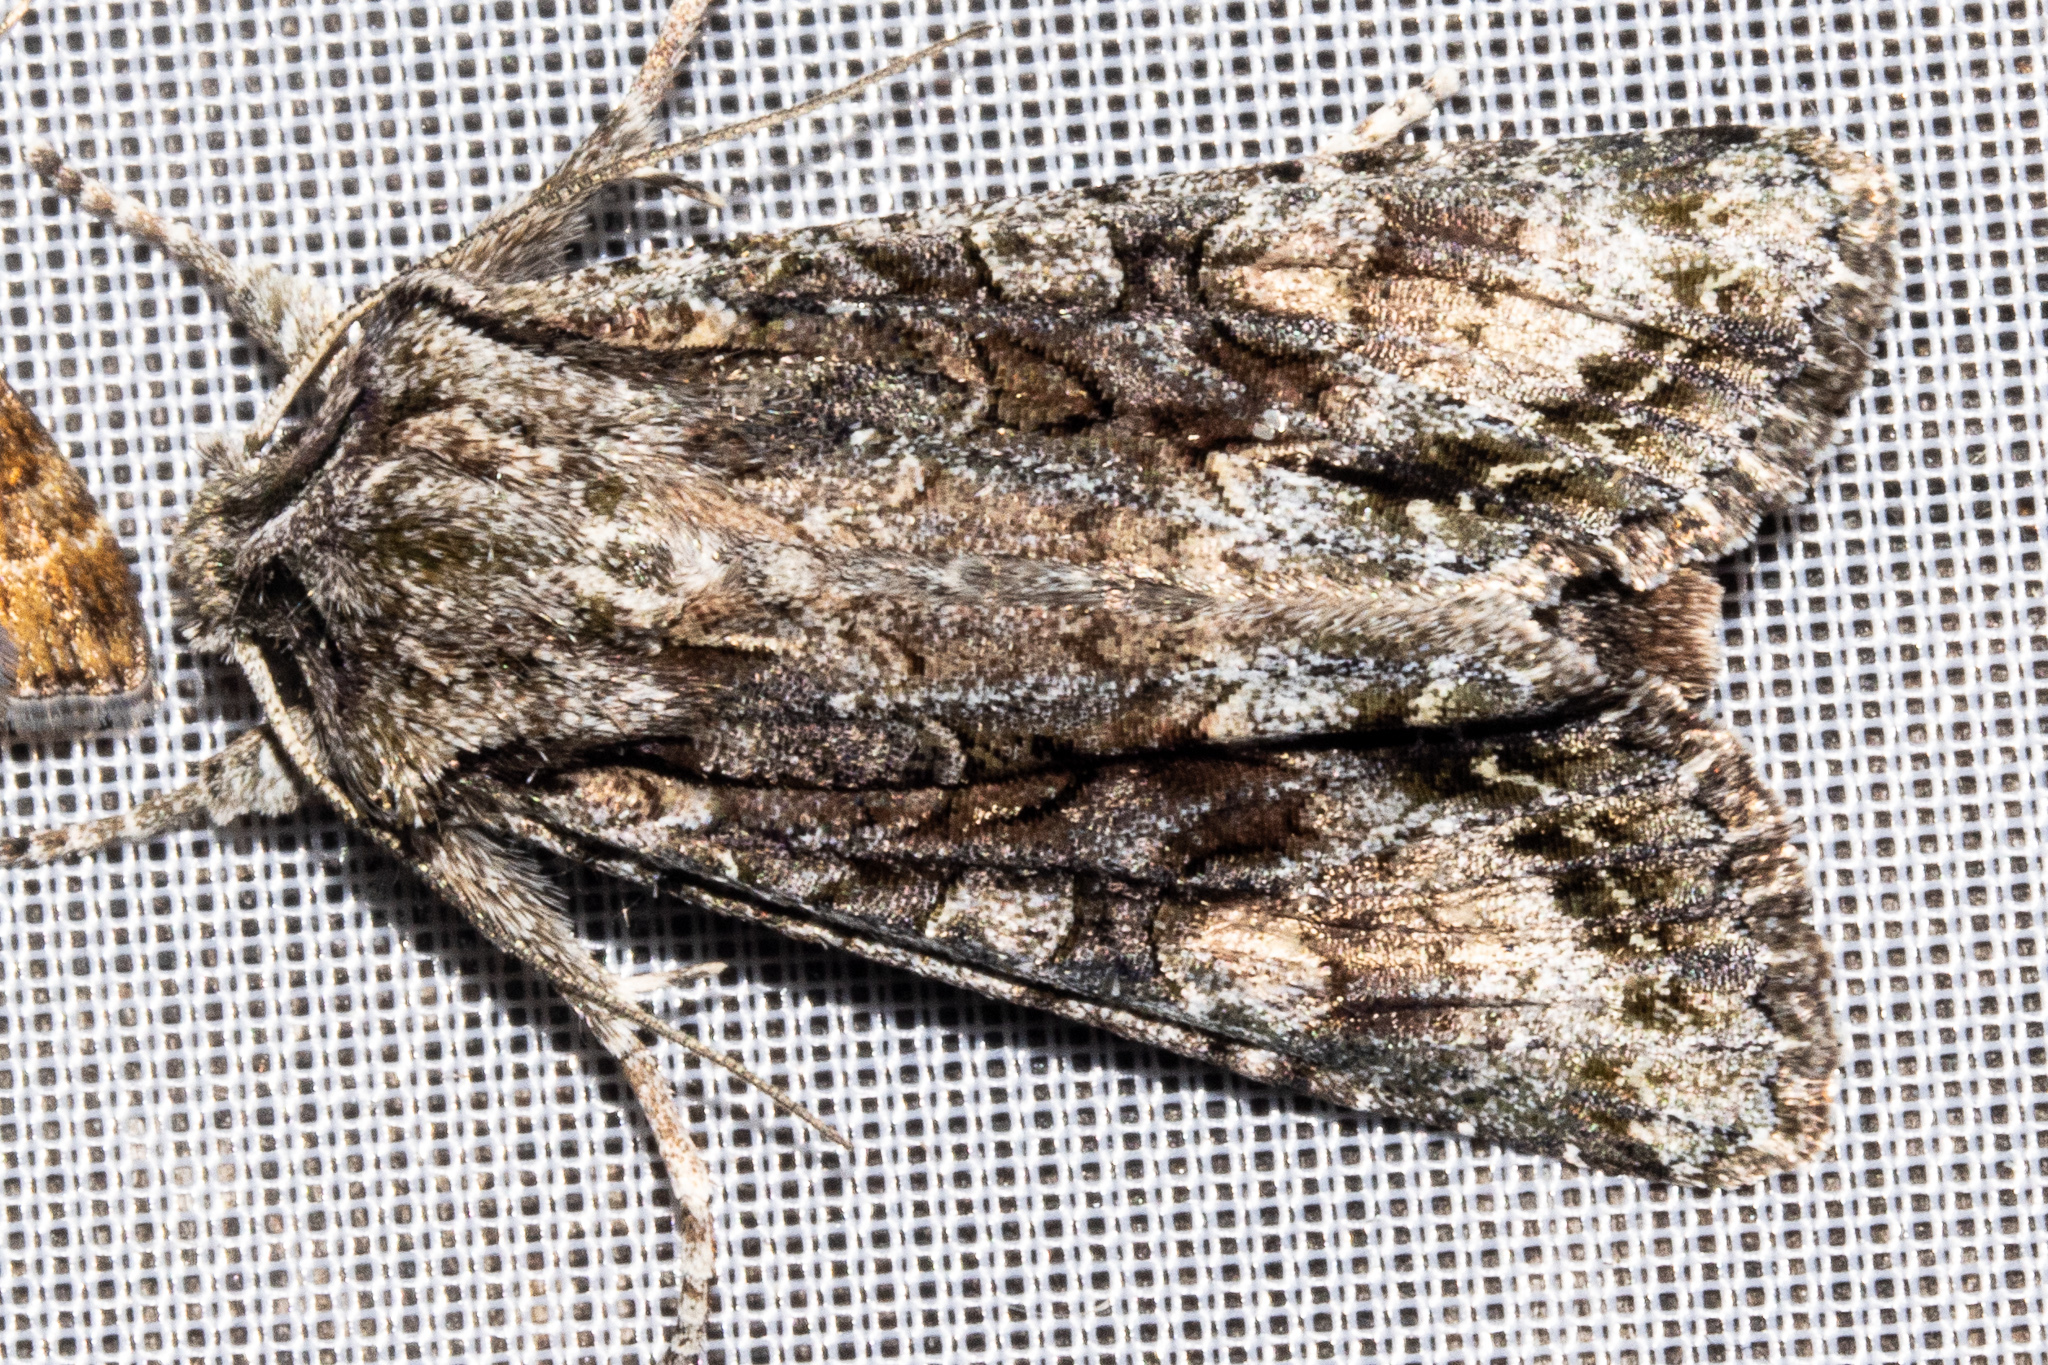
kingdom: Animalia
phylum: Arthropoda
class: Insecta
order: Lepidoptera
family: Noctuidae
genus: Ichneutica
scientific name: Ichneutica mutans
